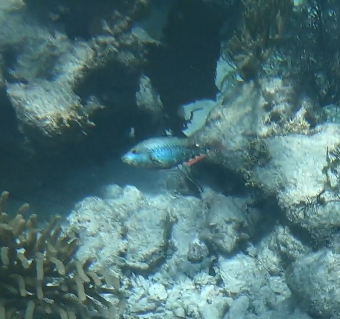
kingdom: Animalia
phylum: Chordata
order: Perciformes
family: Scaridae
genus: Sparisoma
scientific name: Sparisoma aurofrenatum
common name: Redband parrotfish
